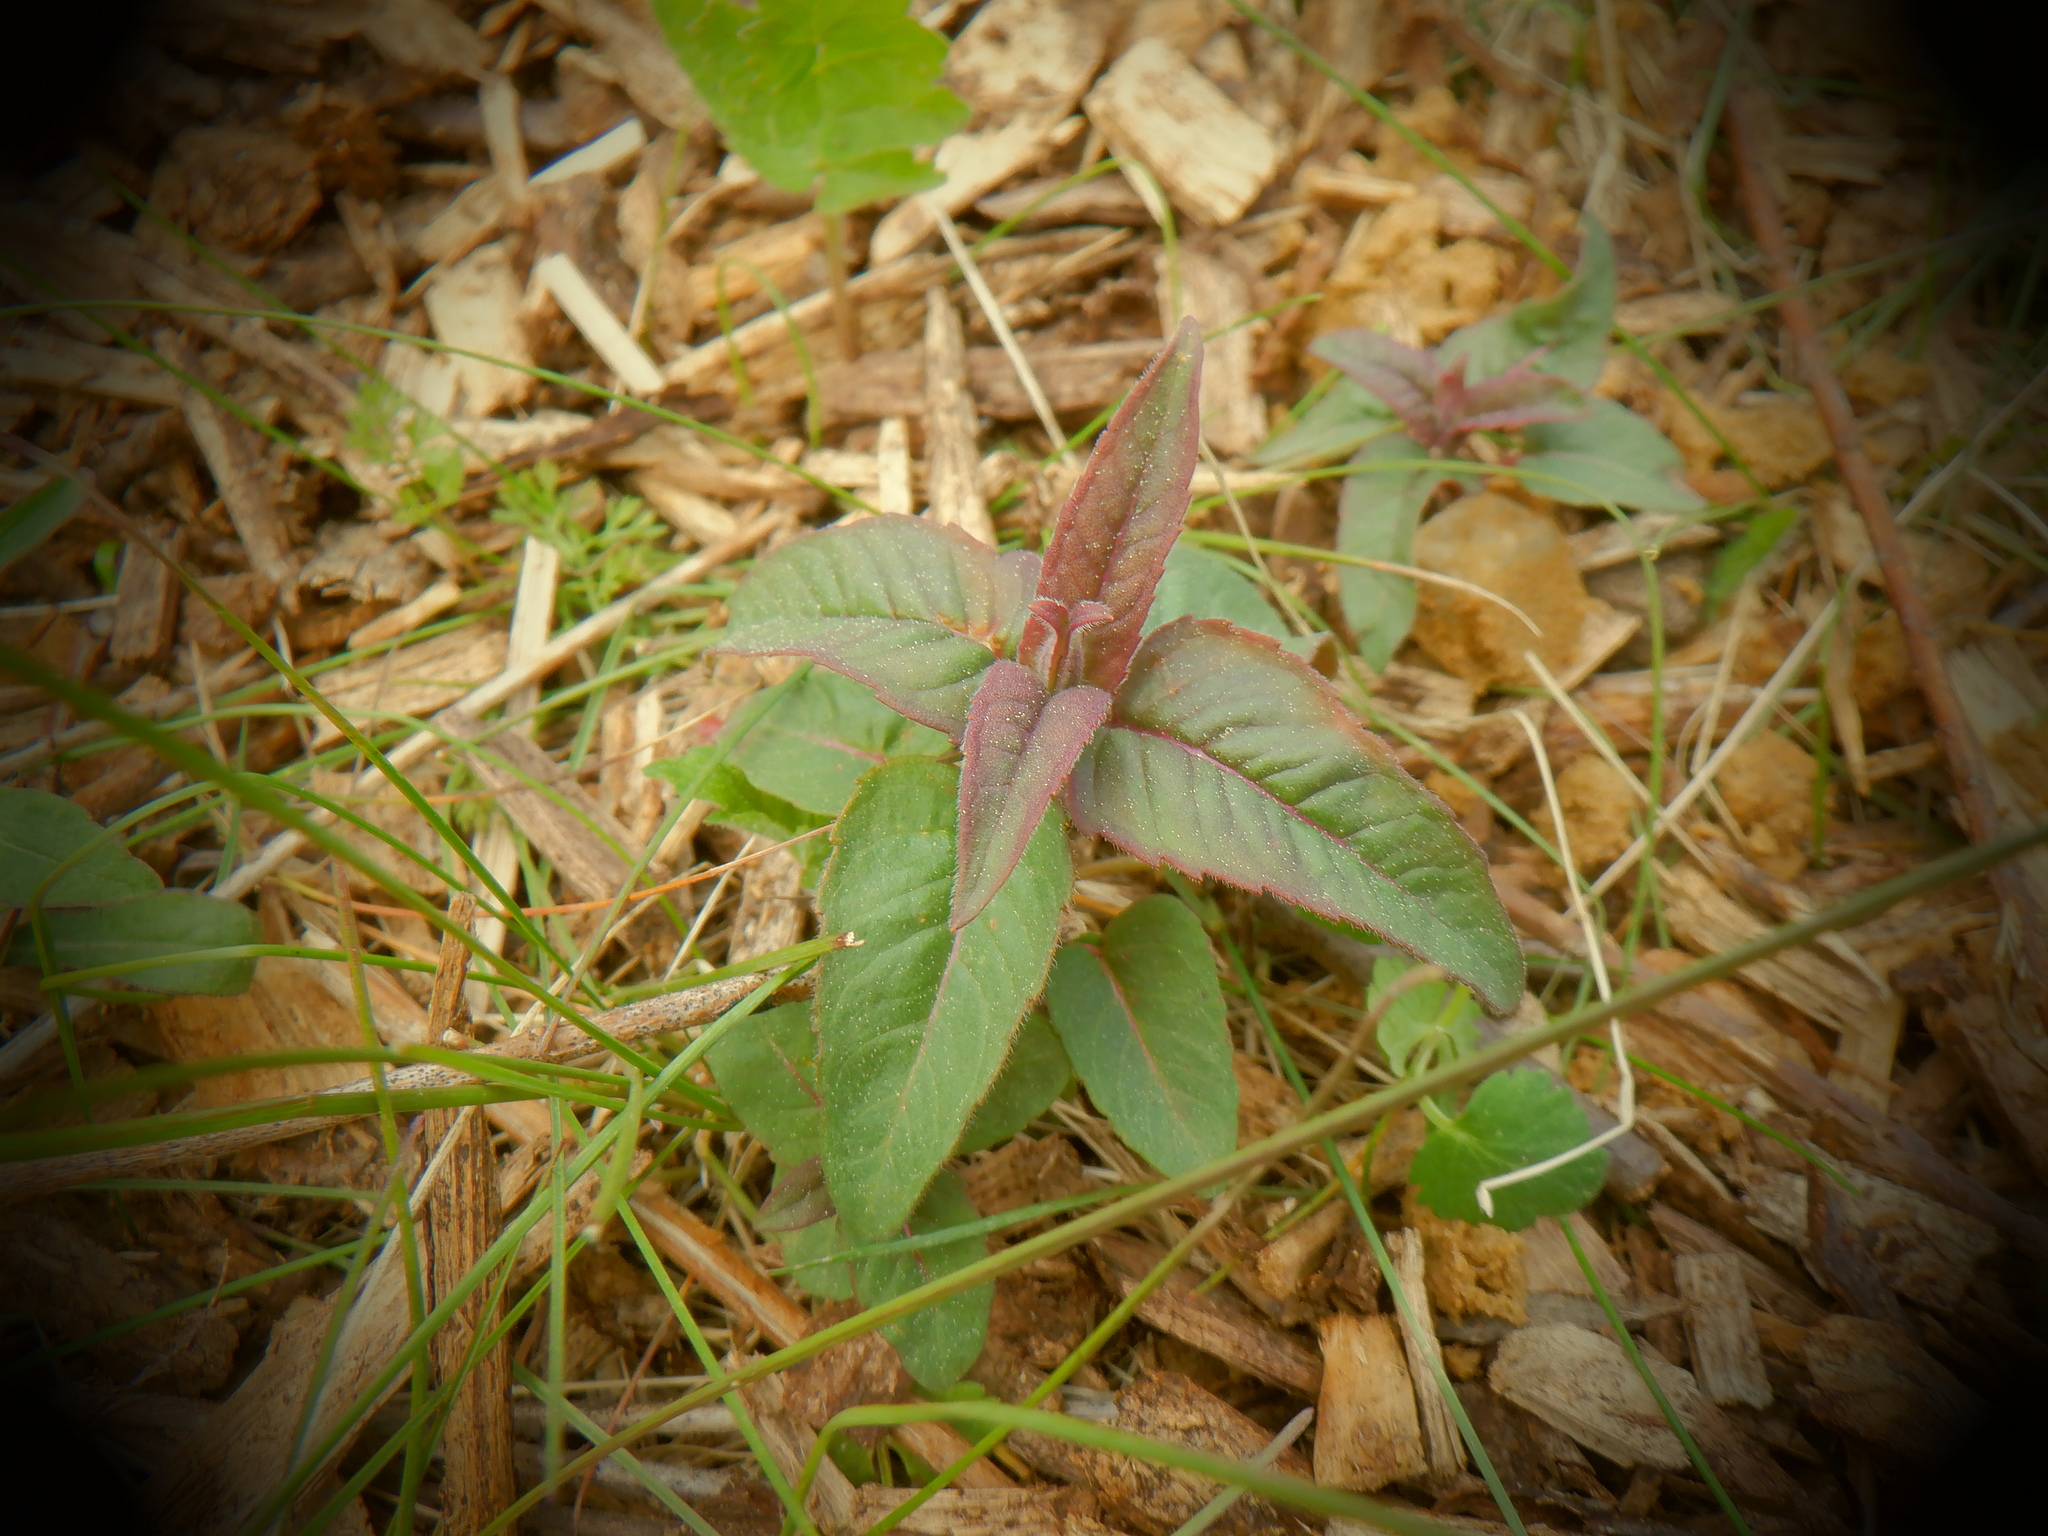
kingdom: Plantae
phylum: Tracheophyta
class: Magnoliopsida
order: Lamiales
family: Lamiaceae
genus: Monarda
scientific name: Monarda fistulosa
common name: Purple beebalm
